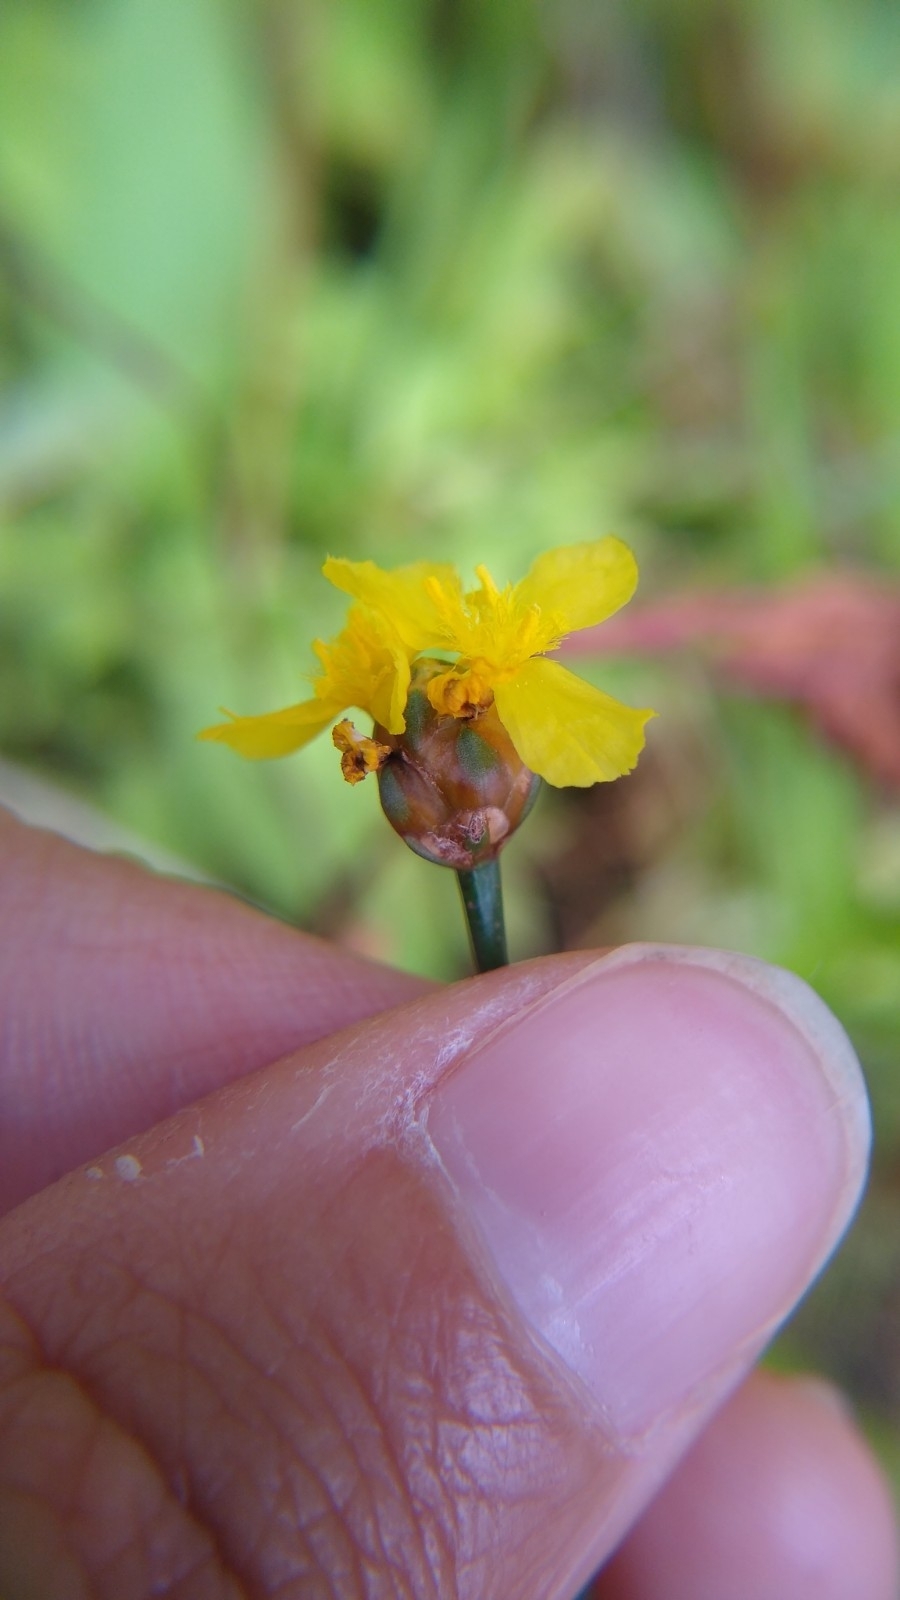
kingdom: Plantae
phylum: Tracheophyta
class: Liliopsida
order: Poales
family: Xyridaceae
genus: Xyris
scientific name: Xyris difformis
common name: Bog yellow-eyed-grass
